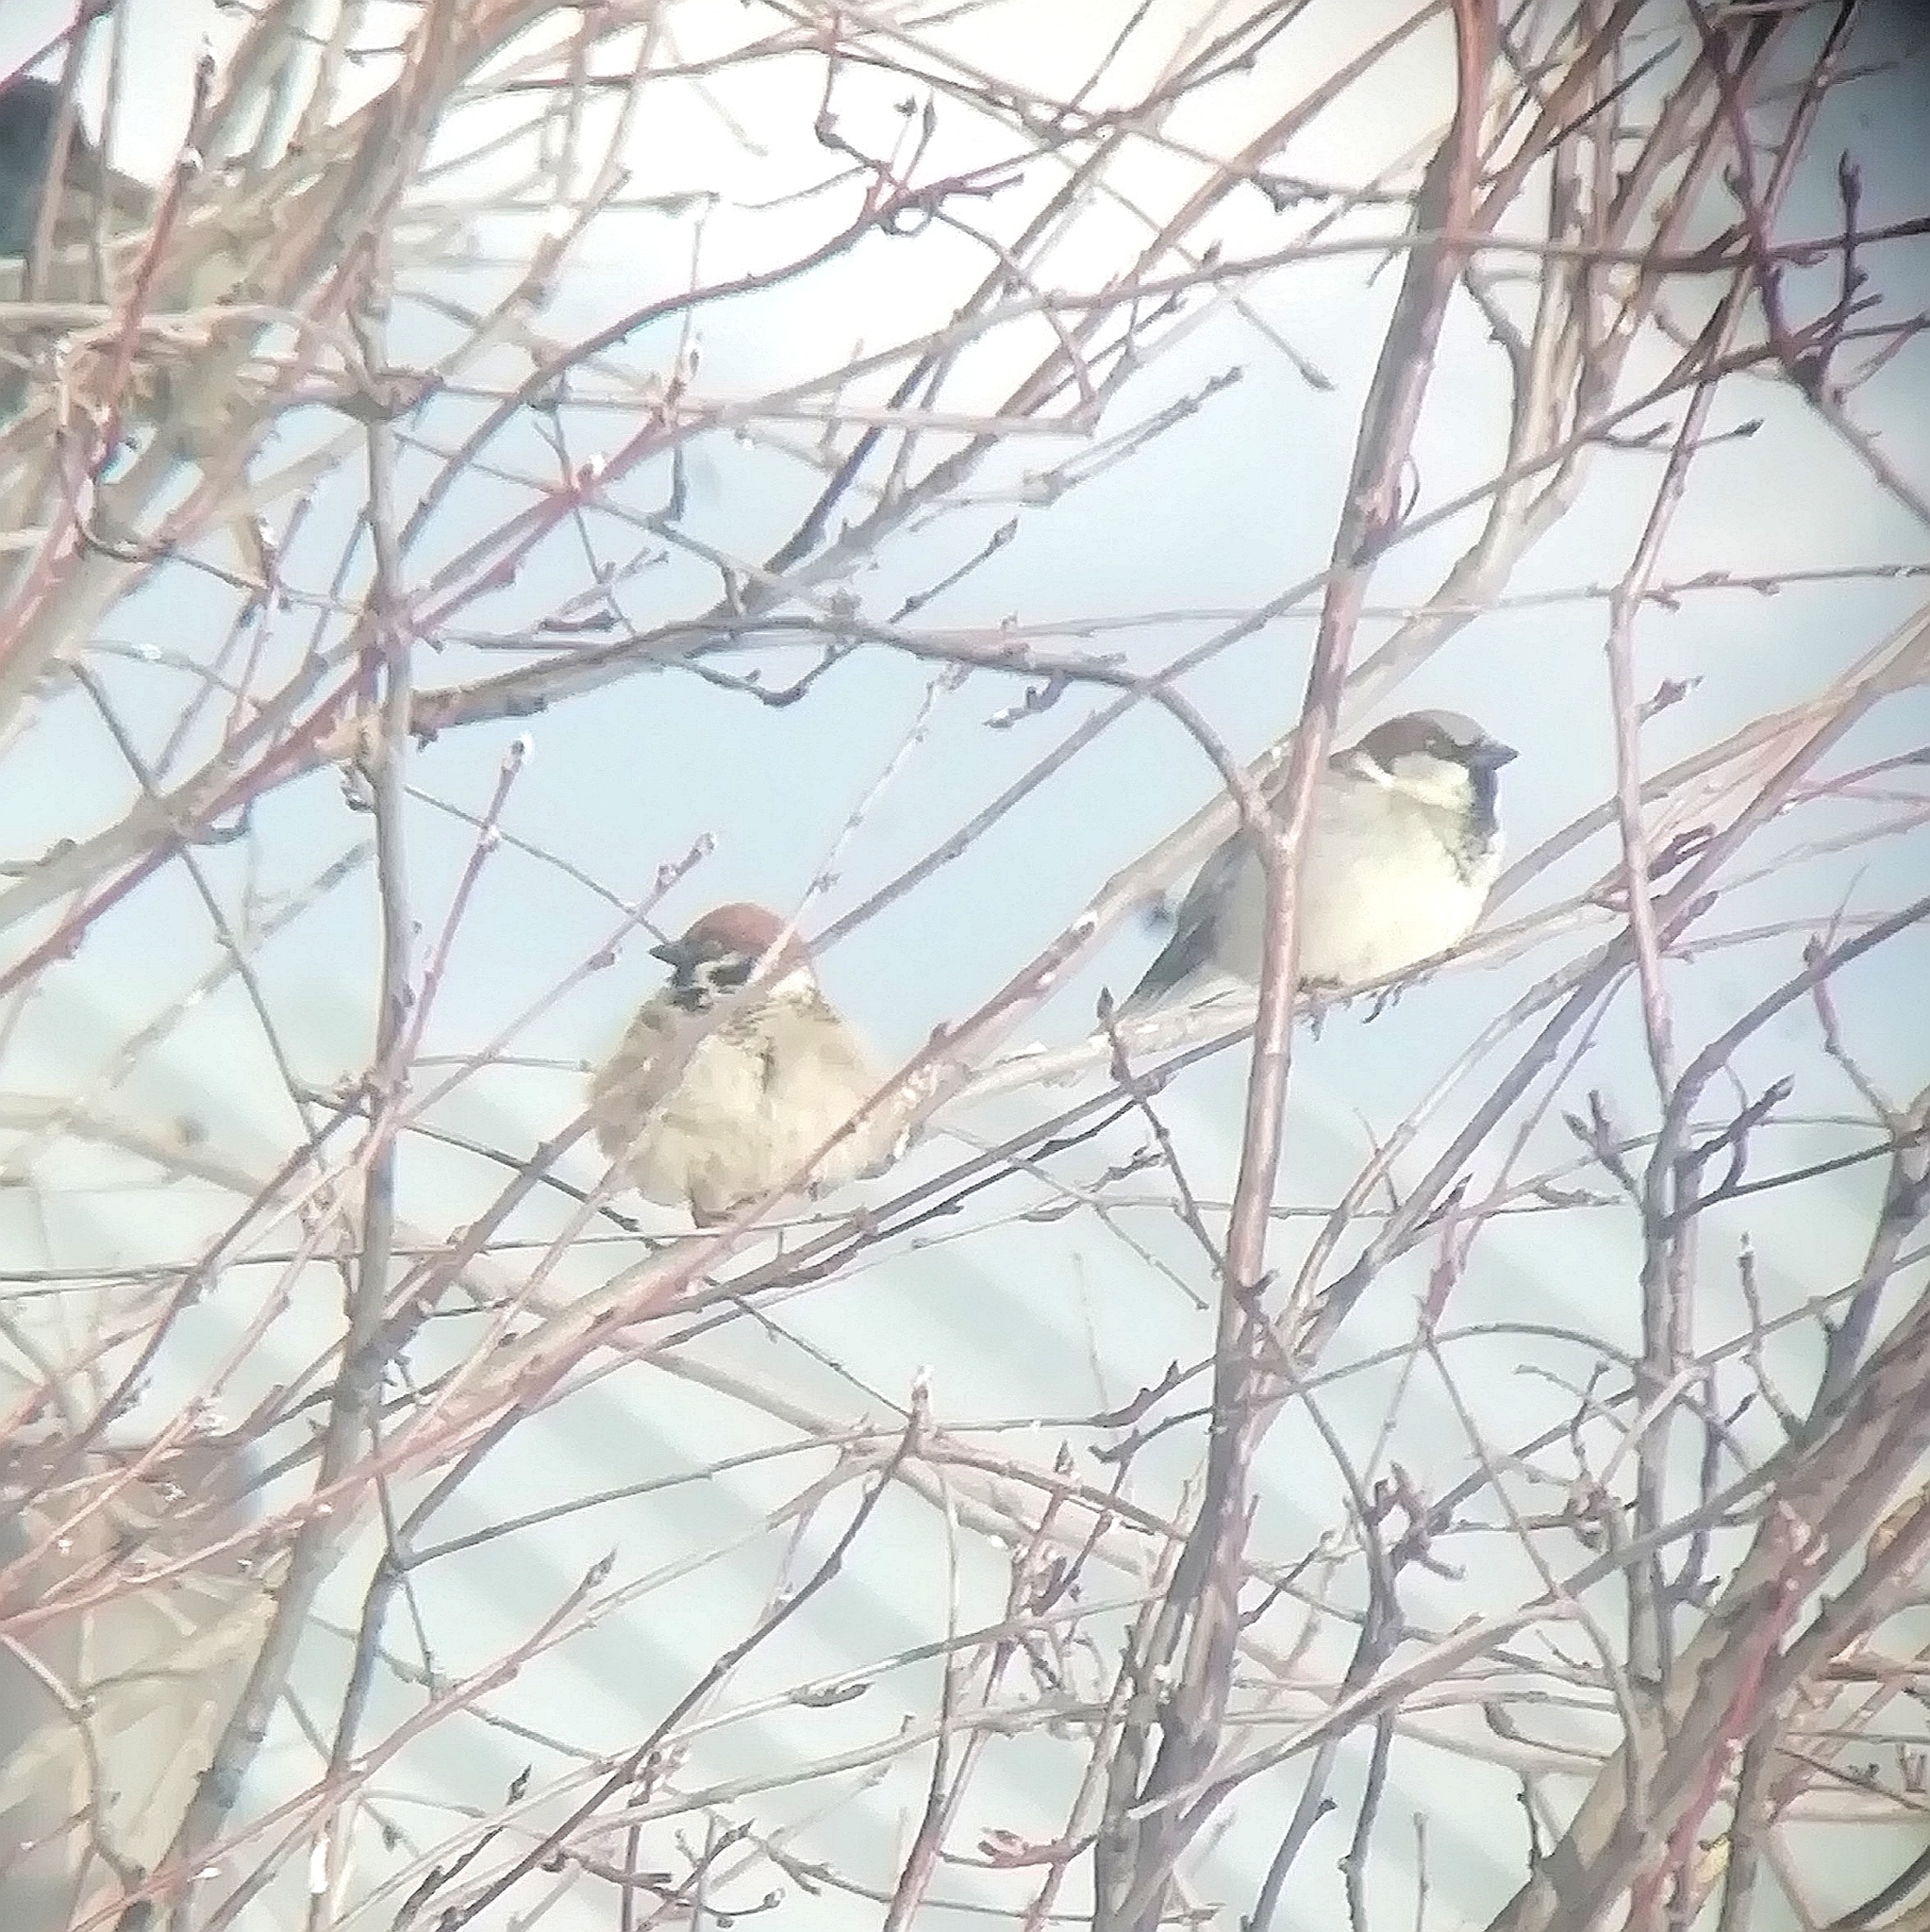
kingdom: Animalia
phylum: Chordata
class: Aves
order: Passeriformes
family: Passeridae
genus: Passer
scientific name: Passer montanus
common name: Eurasian tree sparrow
